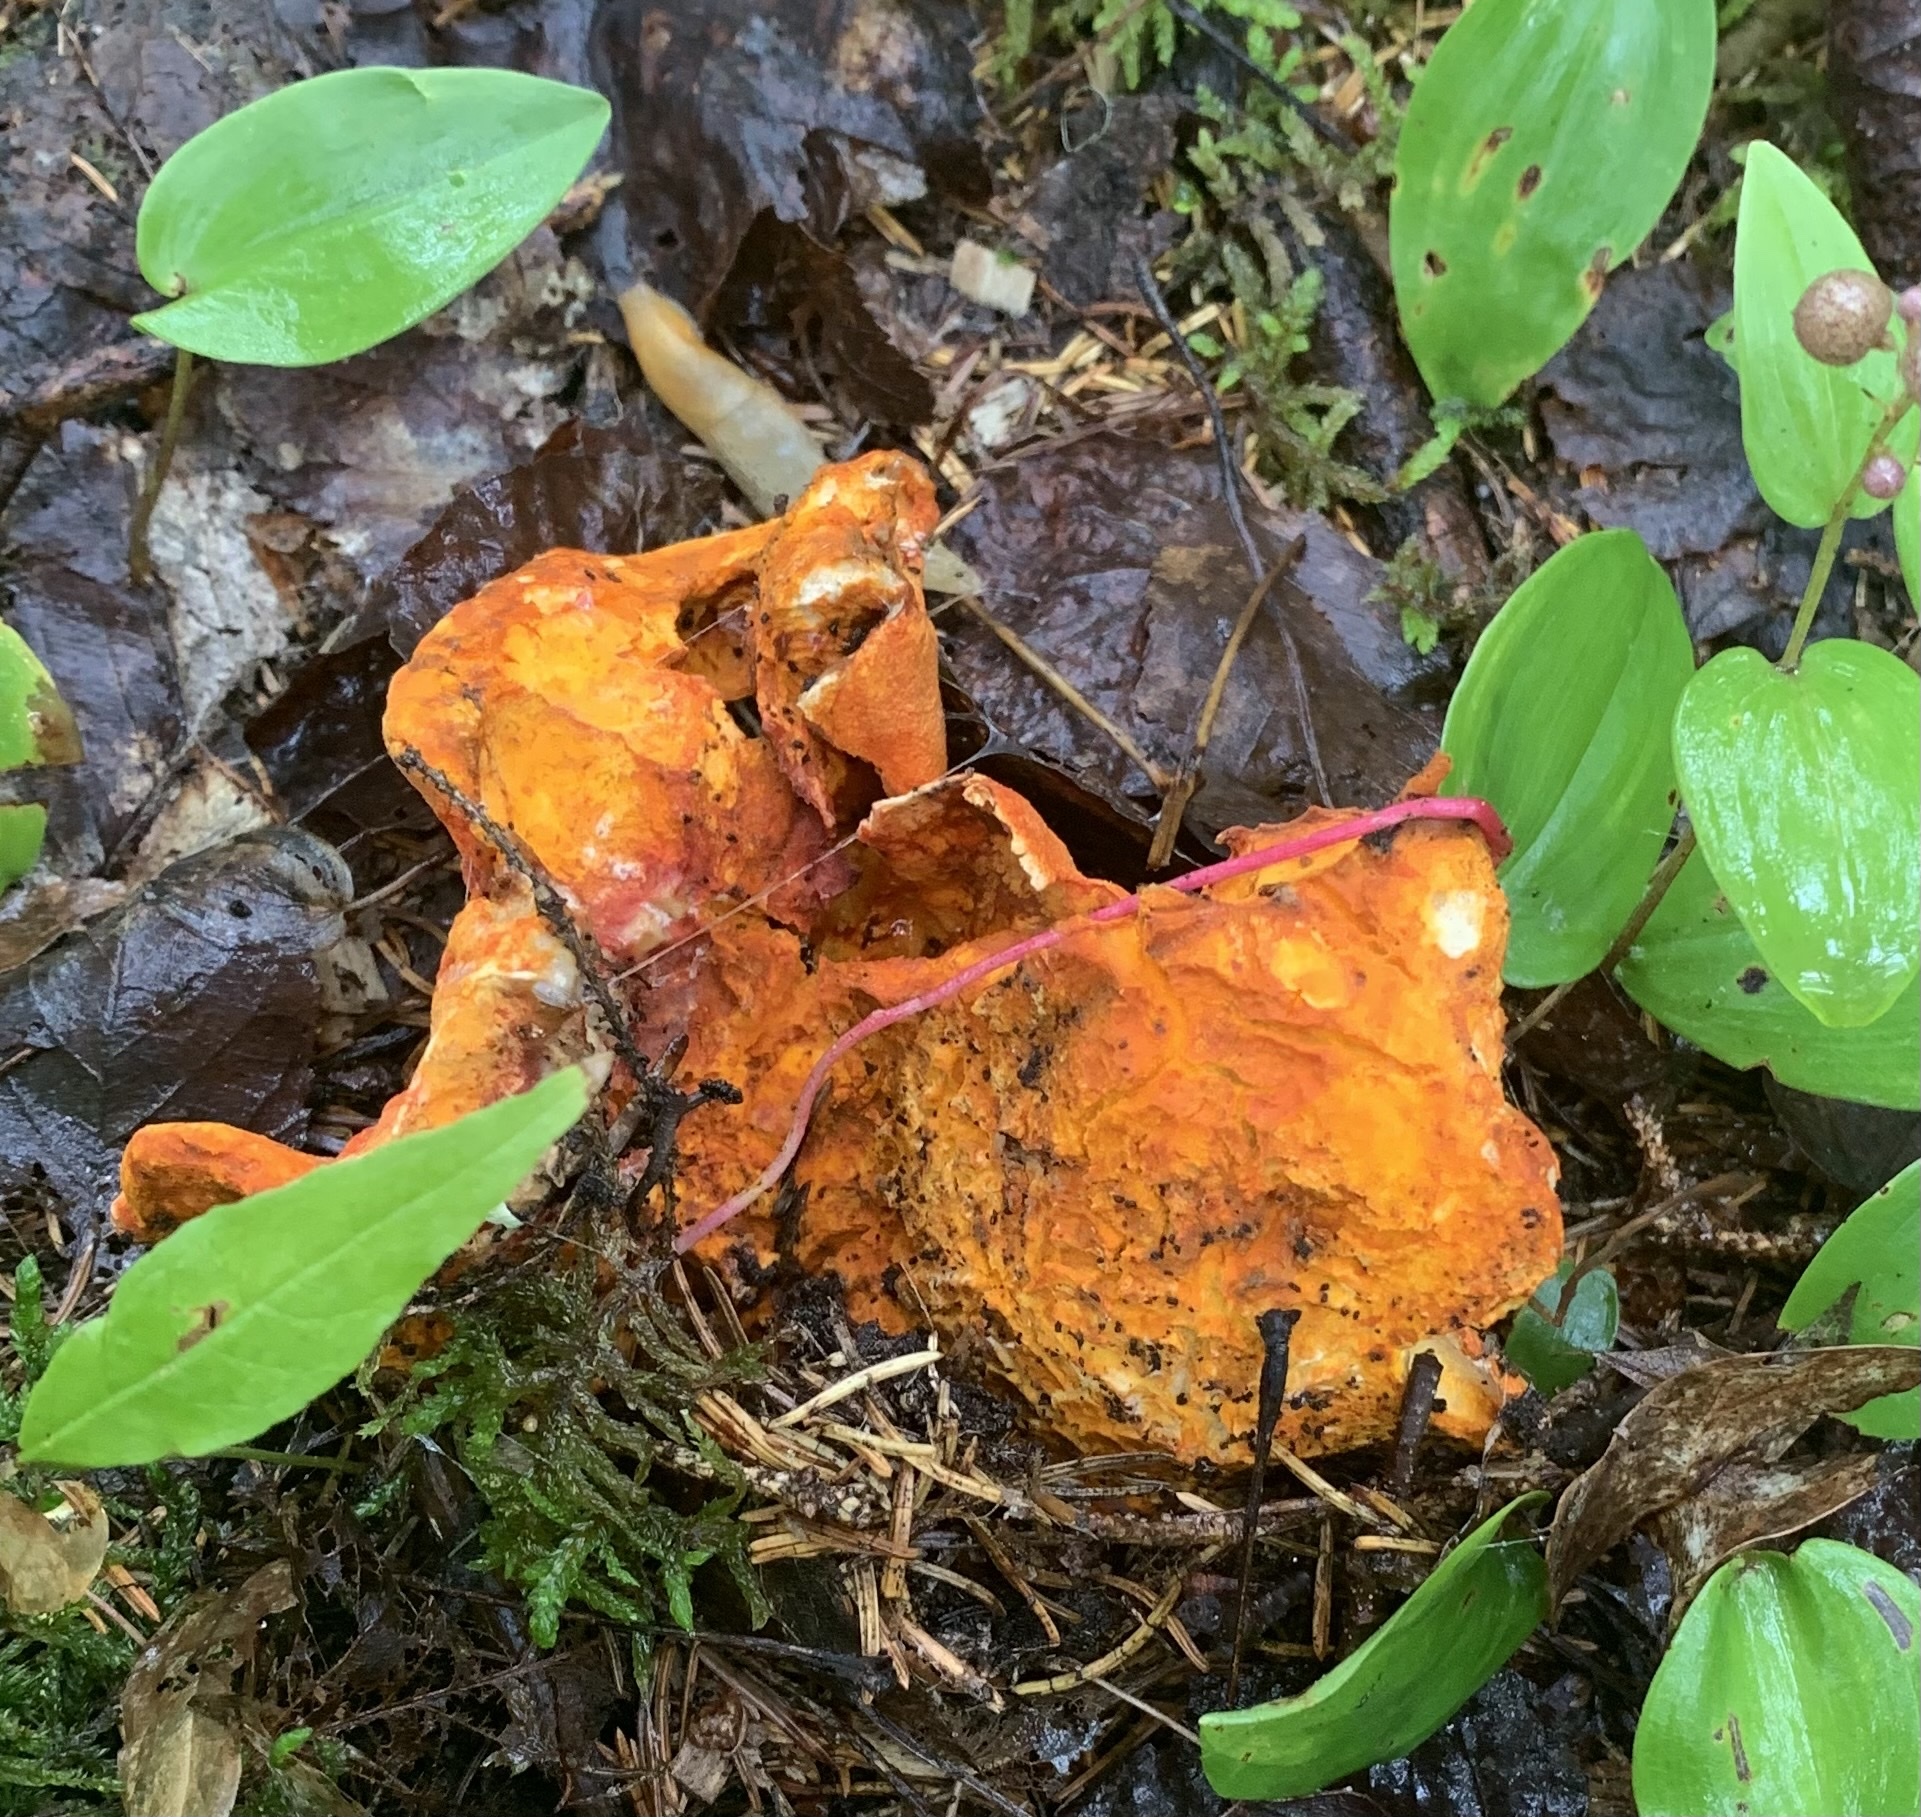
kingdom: Fungi
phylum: Ascomycota
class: Sordariomycetes
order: Hypocreales
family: Hypocreaceae
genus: Hypomyces
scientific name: Hypomyces lactifluorum
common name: Lobster mushroom
